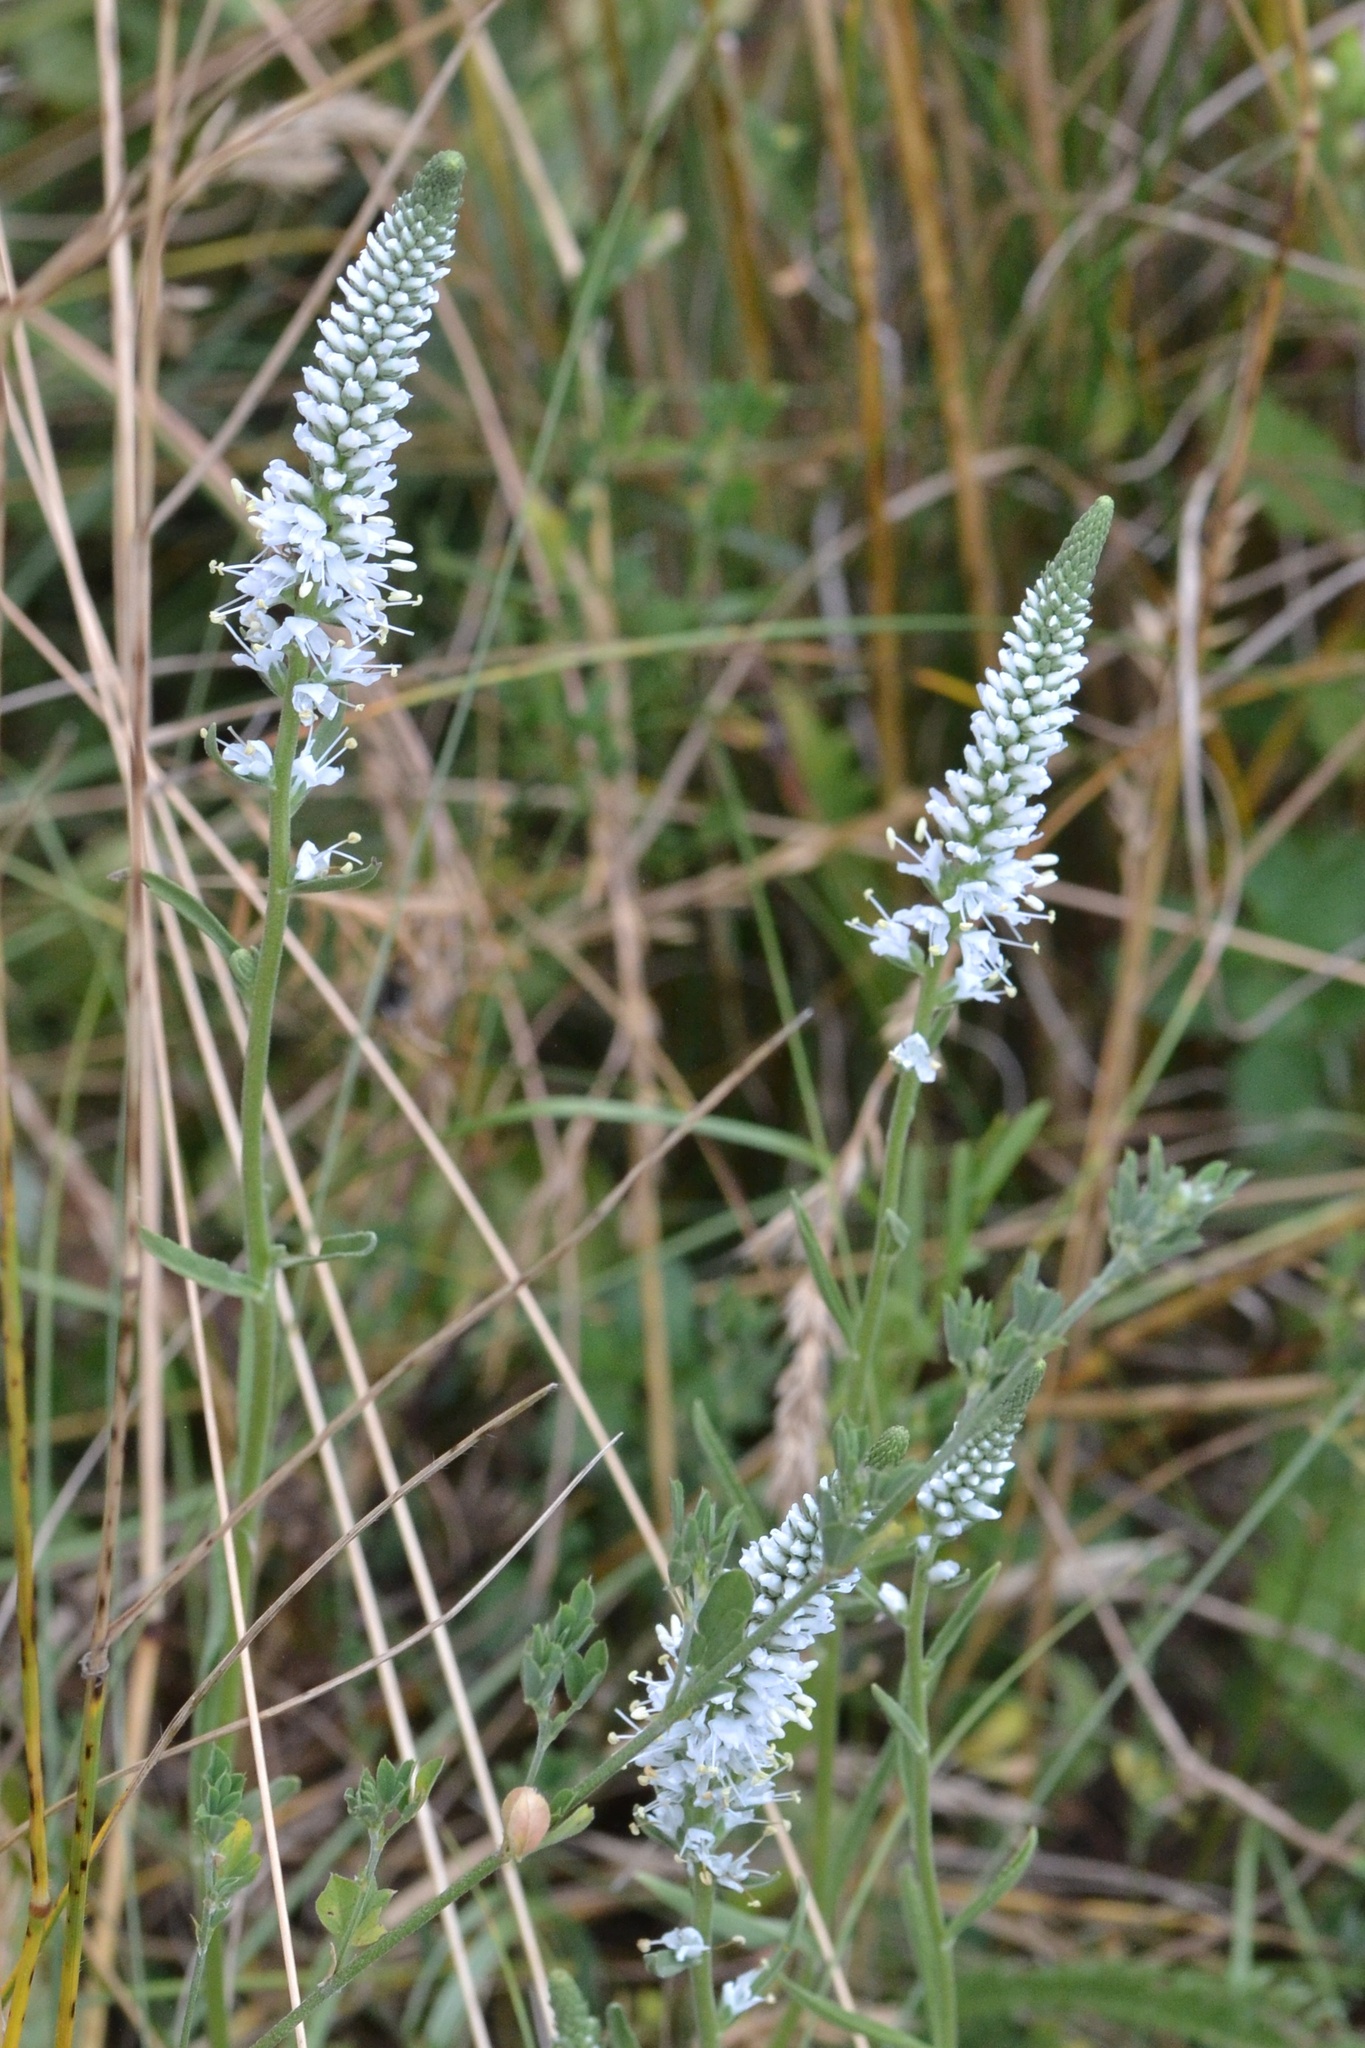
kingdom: Plantae
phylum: Tracheophyta
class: Magnoliopsida
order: Lamiales
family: Plantaginaceae
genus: Veronica
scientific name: Veronica spicata
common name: Spiked speedwell
